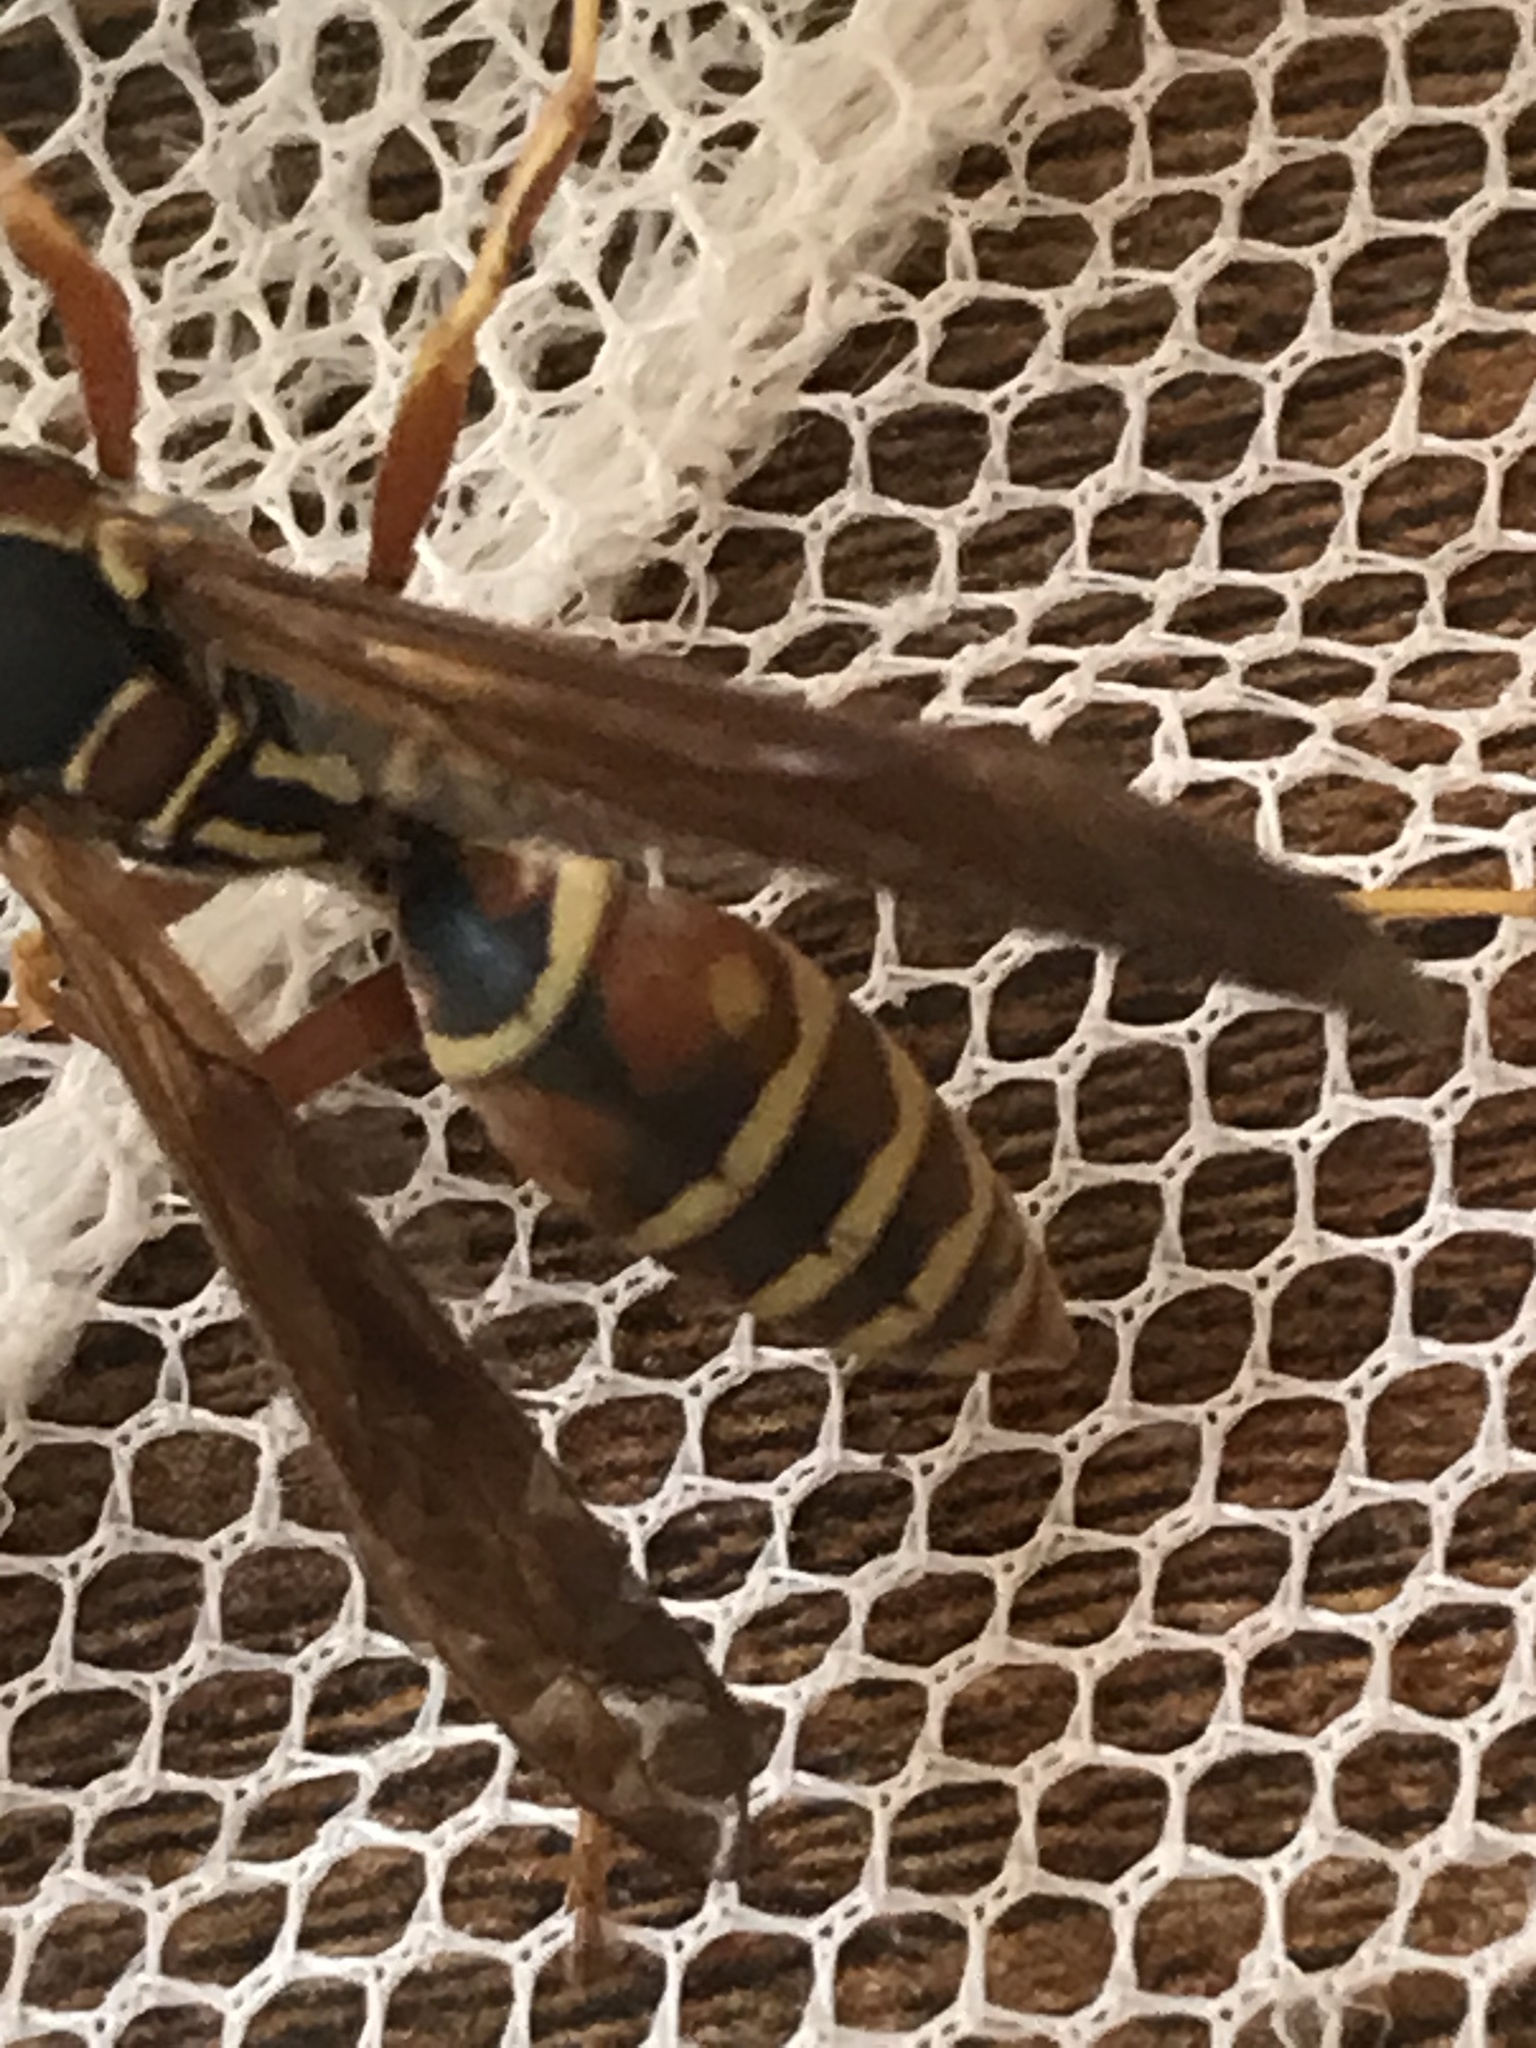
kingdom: Animalia
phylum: Arthropoda
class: Insecta
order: Hymenoptera
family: Eumenidae
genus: Polistes
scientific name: Polistes fuscatus
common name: Dark paper wasp
